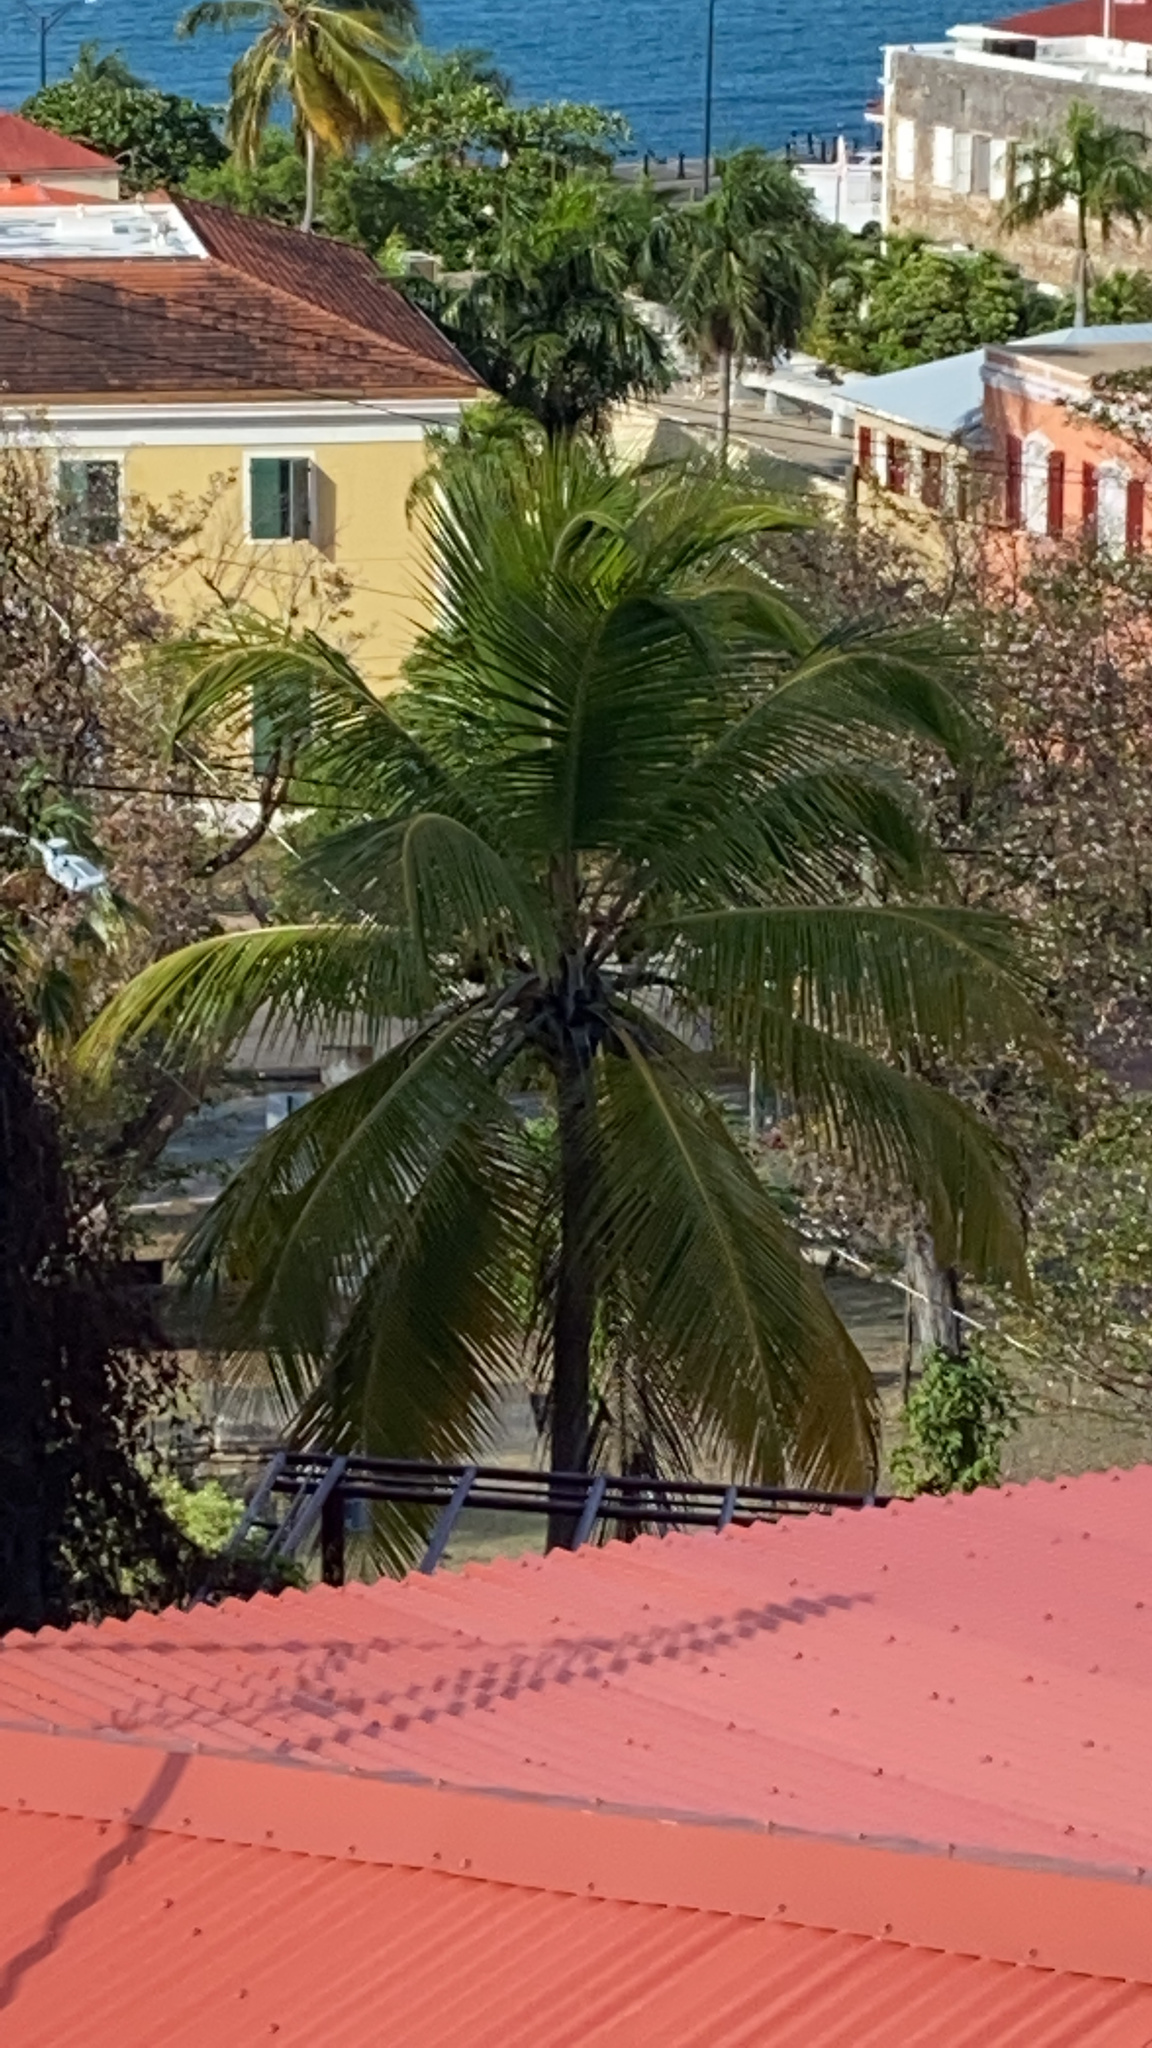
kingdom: Plantae
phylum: Tracheophyta
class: Liliopsida
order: Arecales
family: Arecaceae
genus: Cocos
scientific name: Cocos nucifera
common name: Coconut palm
